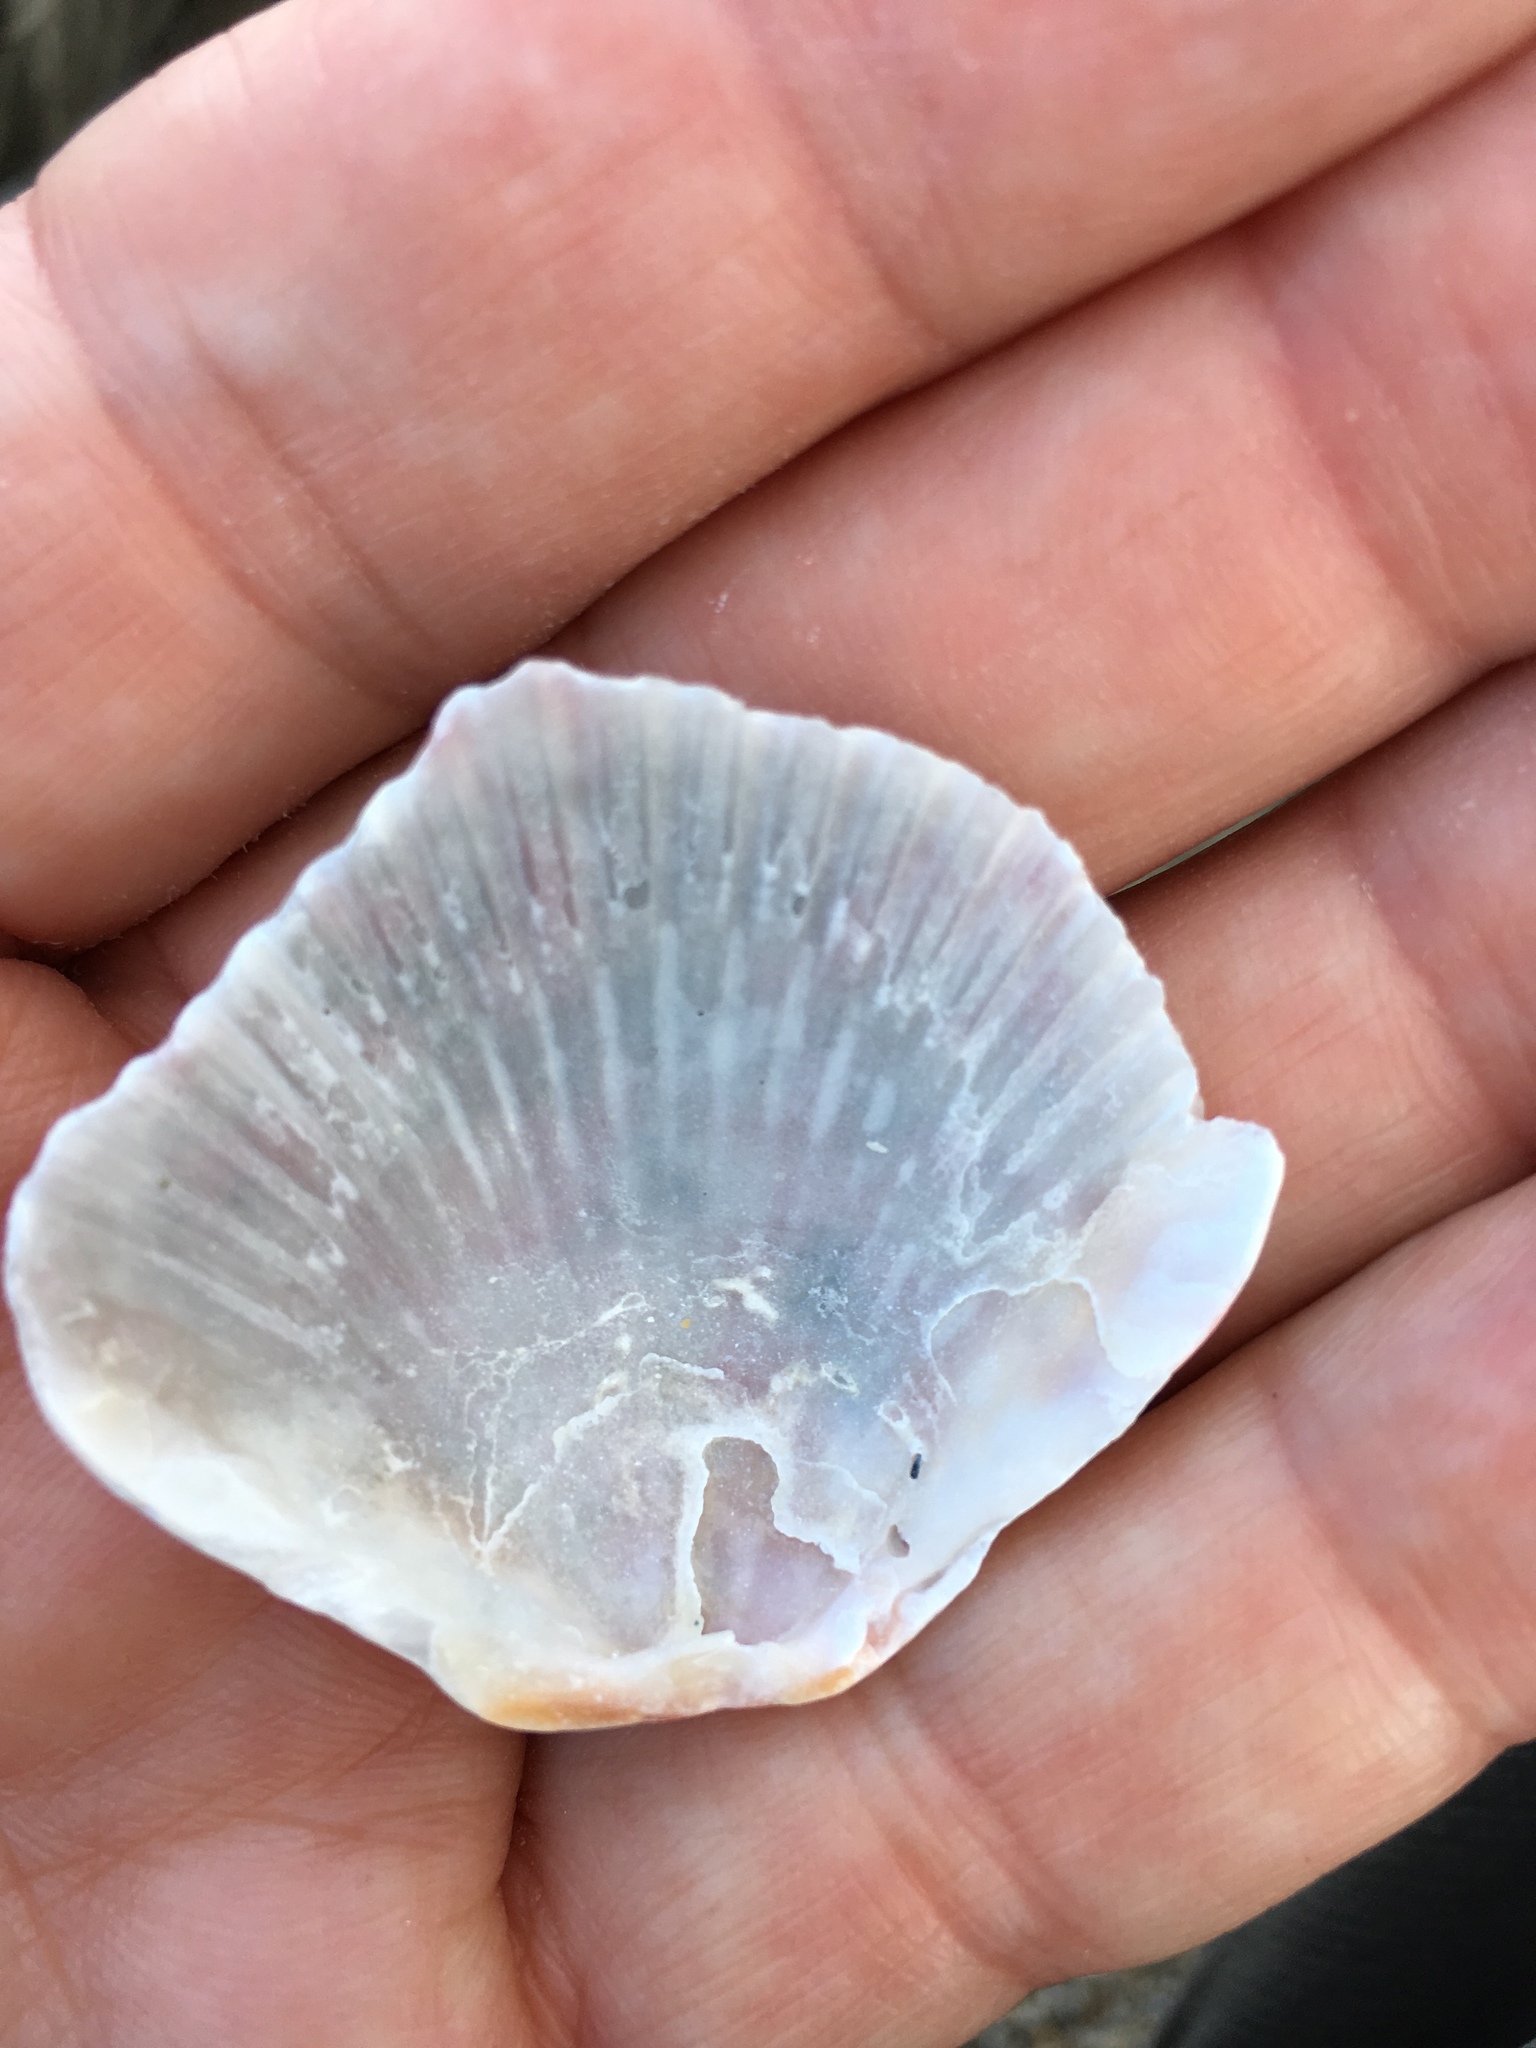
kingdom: Animalia
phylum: Mollusca
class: Bivalvia
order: Pectinida
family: Pectinidae
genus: Argopecten
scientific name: Argopecten gibbus
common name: Atlantic calico scallop
